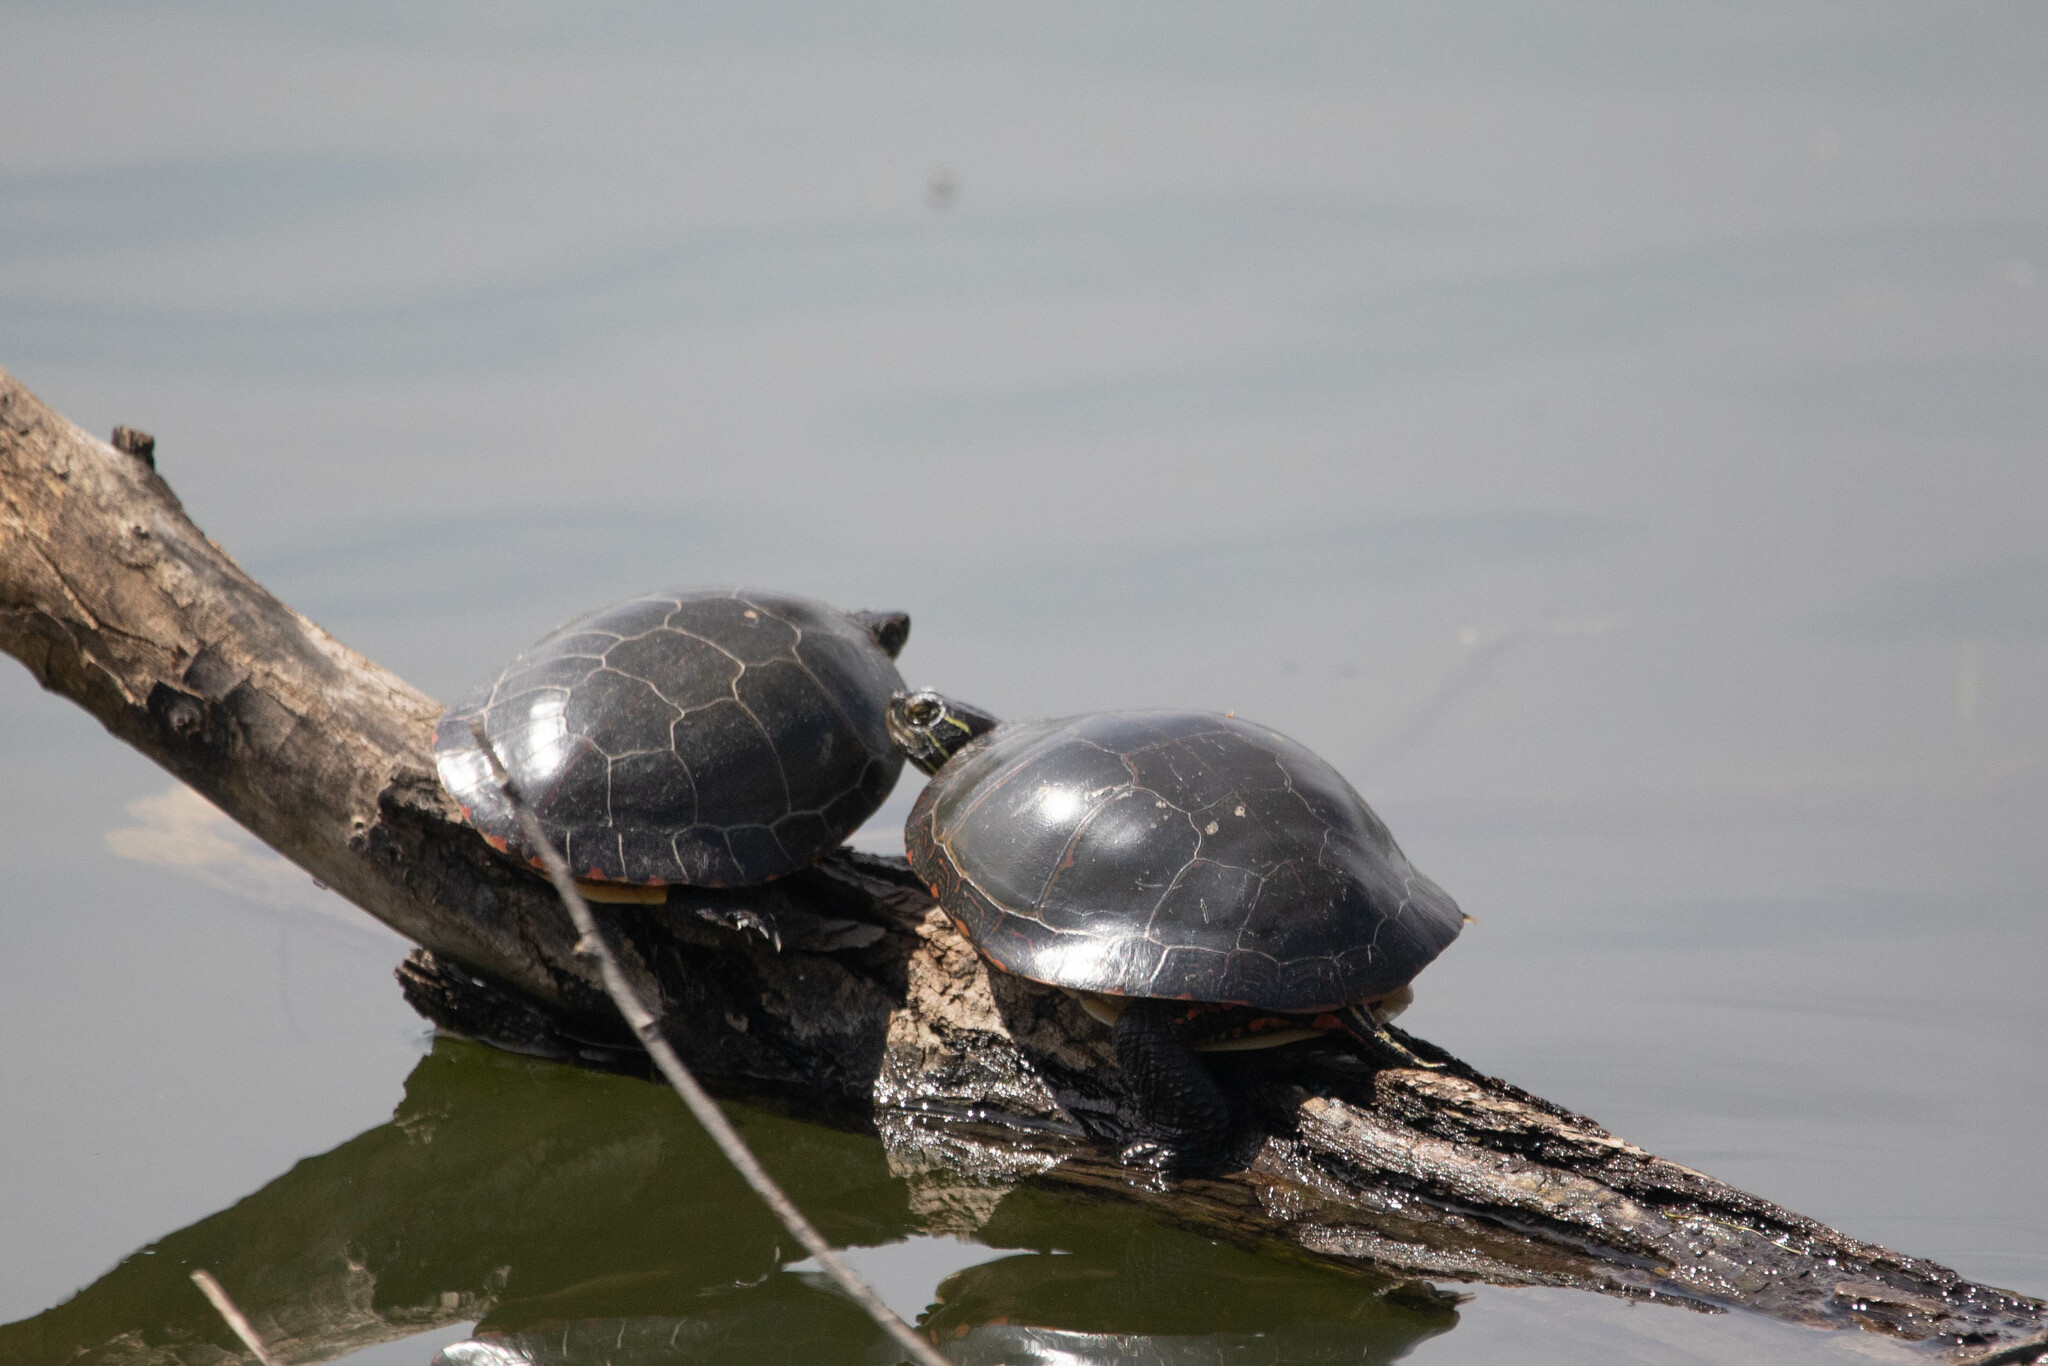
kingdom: Animalia
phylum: Chordata
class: Testudines
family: Emydidae
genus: Chrysemys
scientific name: Chrysemys picta
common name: Painted turtle
